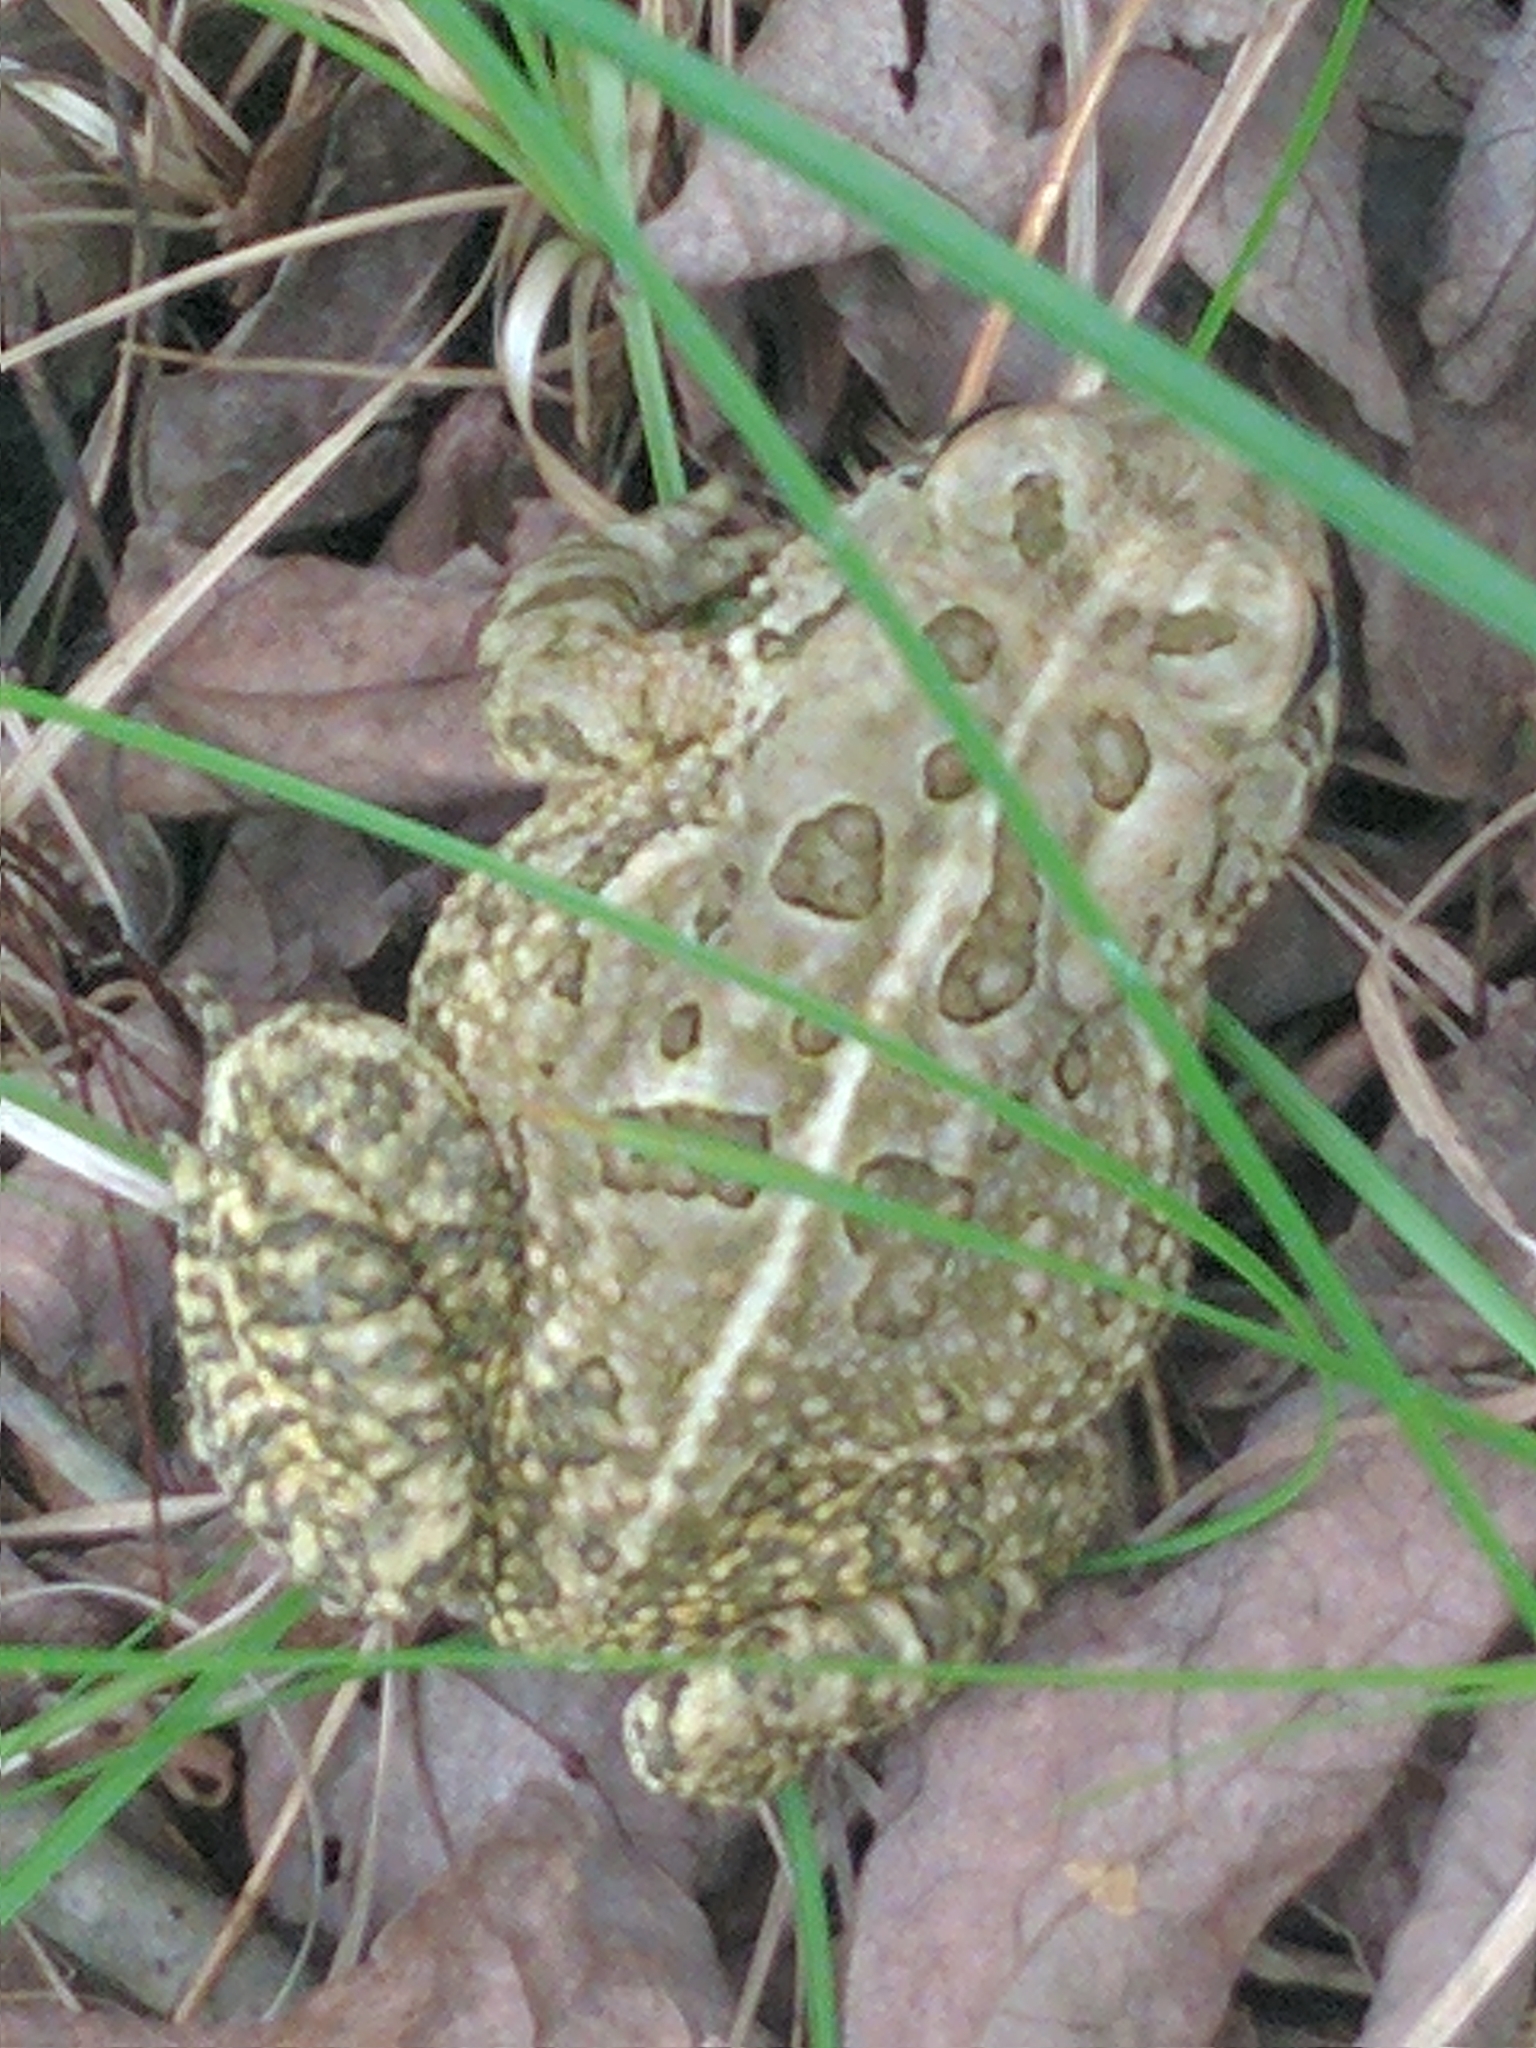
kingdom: Animalia
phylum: Chordata
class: Amphibia
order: Anura
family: Bufonidae
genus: Anaxyrus
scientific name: Anaxyrus fowleri
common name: Fowler's toad
